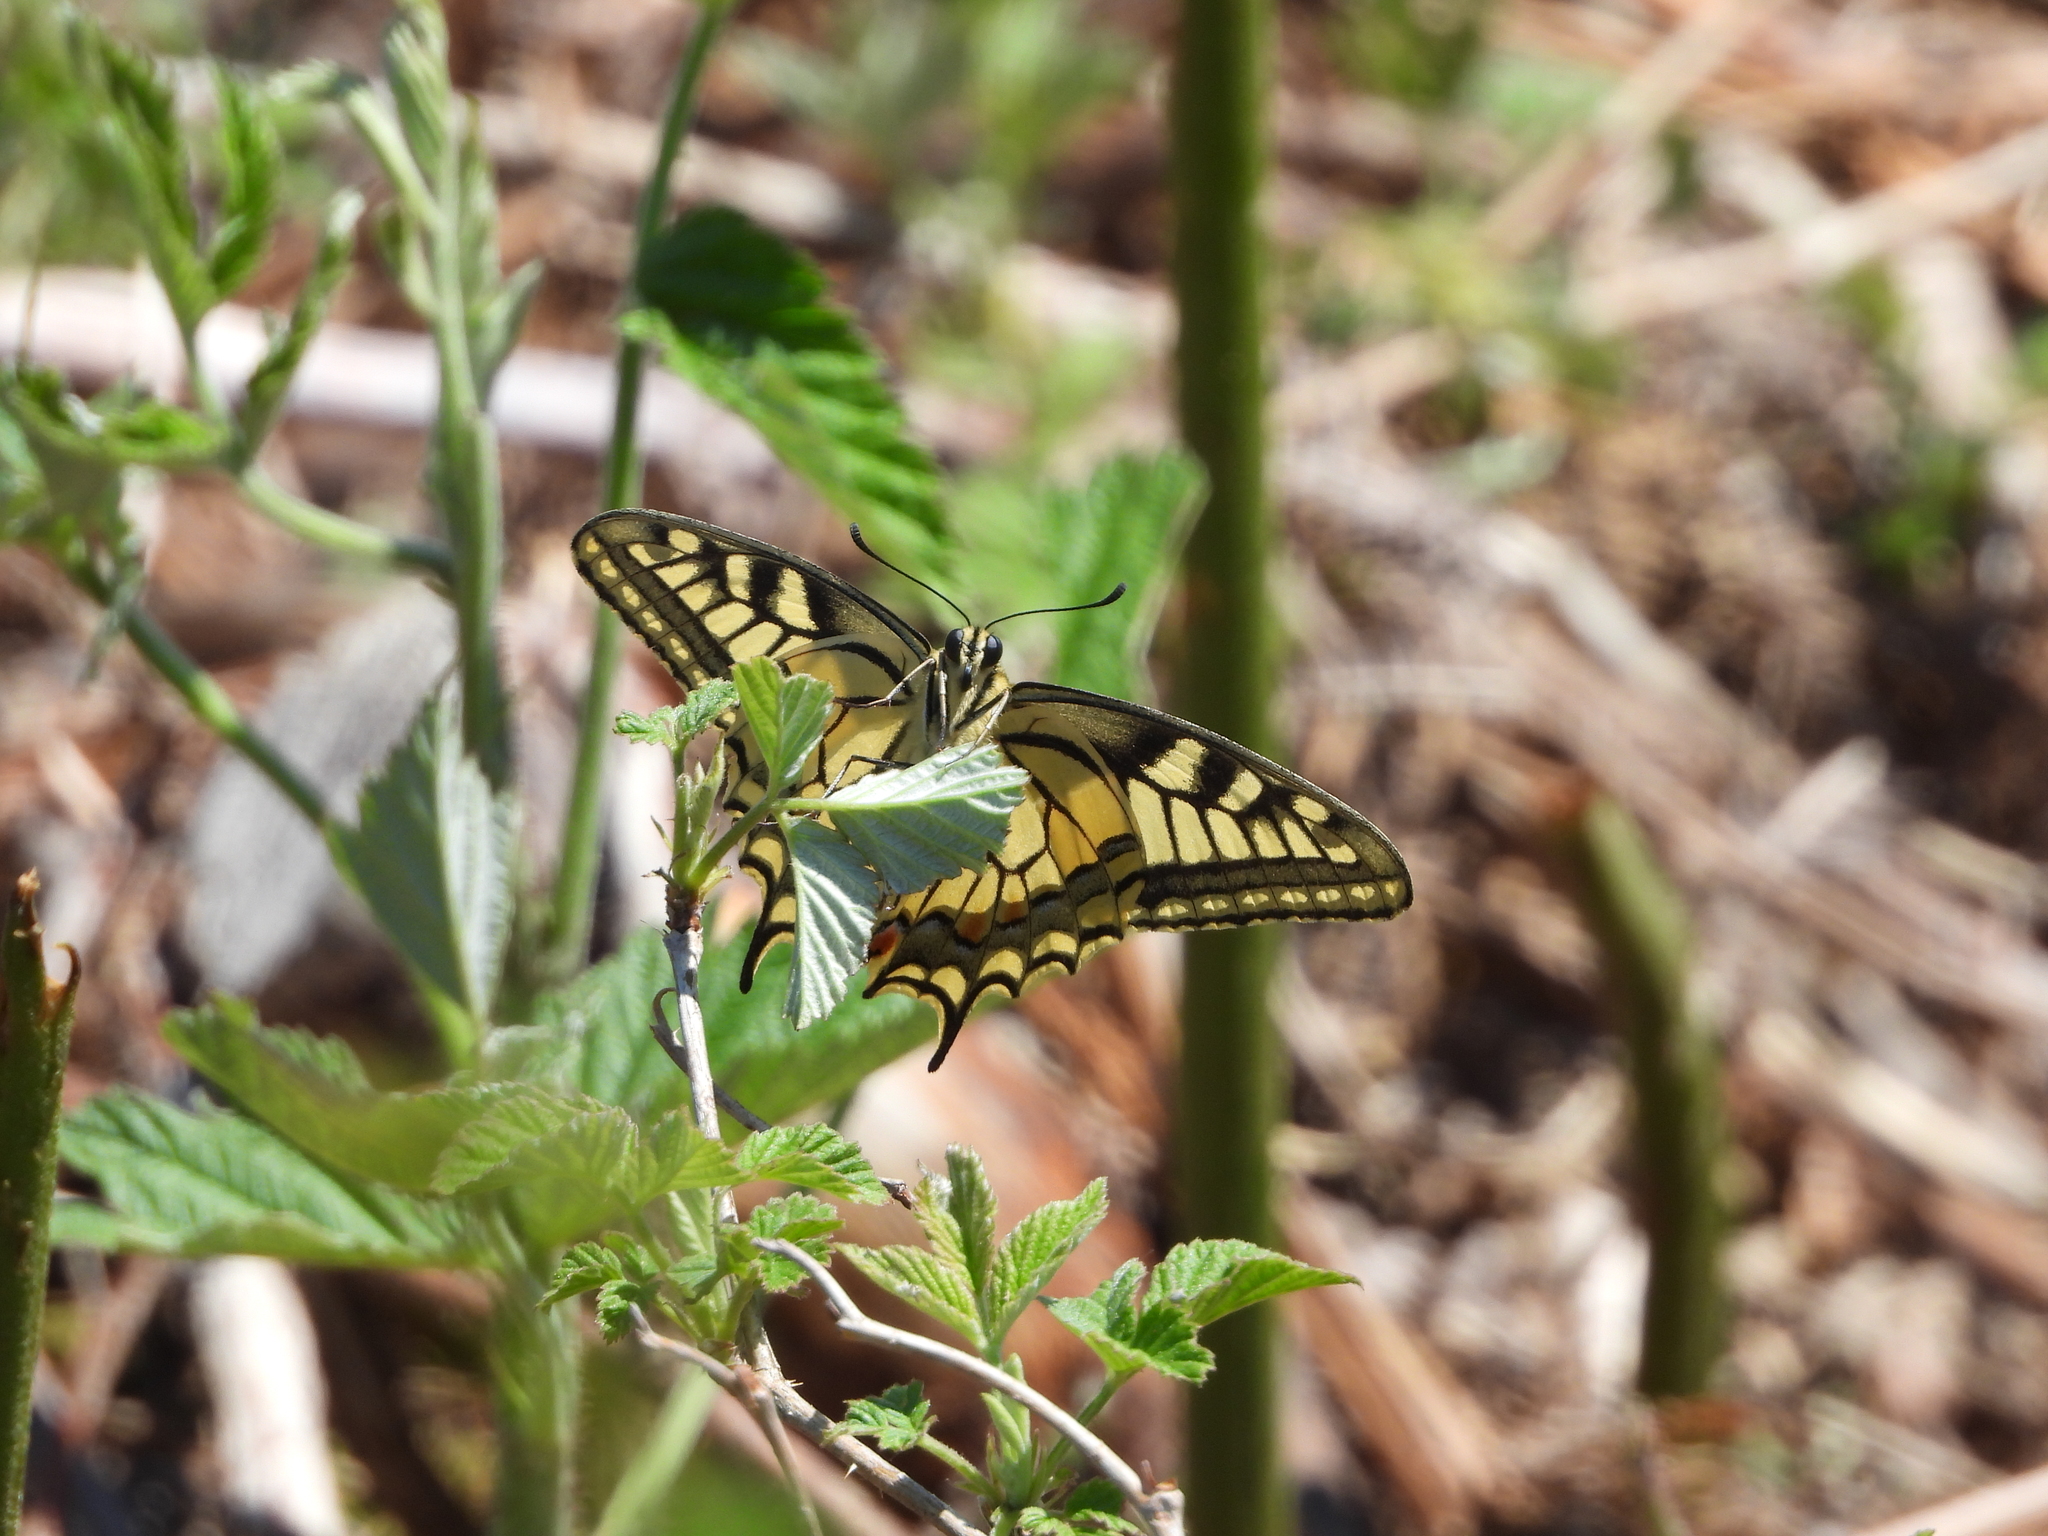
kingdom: Animalia
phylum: Arthropoda
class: Insecta
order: Lepidoptera
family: Papilionidae
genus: Papilio
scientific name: Papilio machaon
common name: Swallowtail
